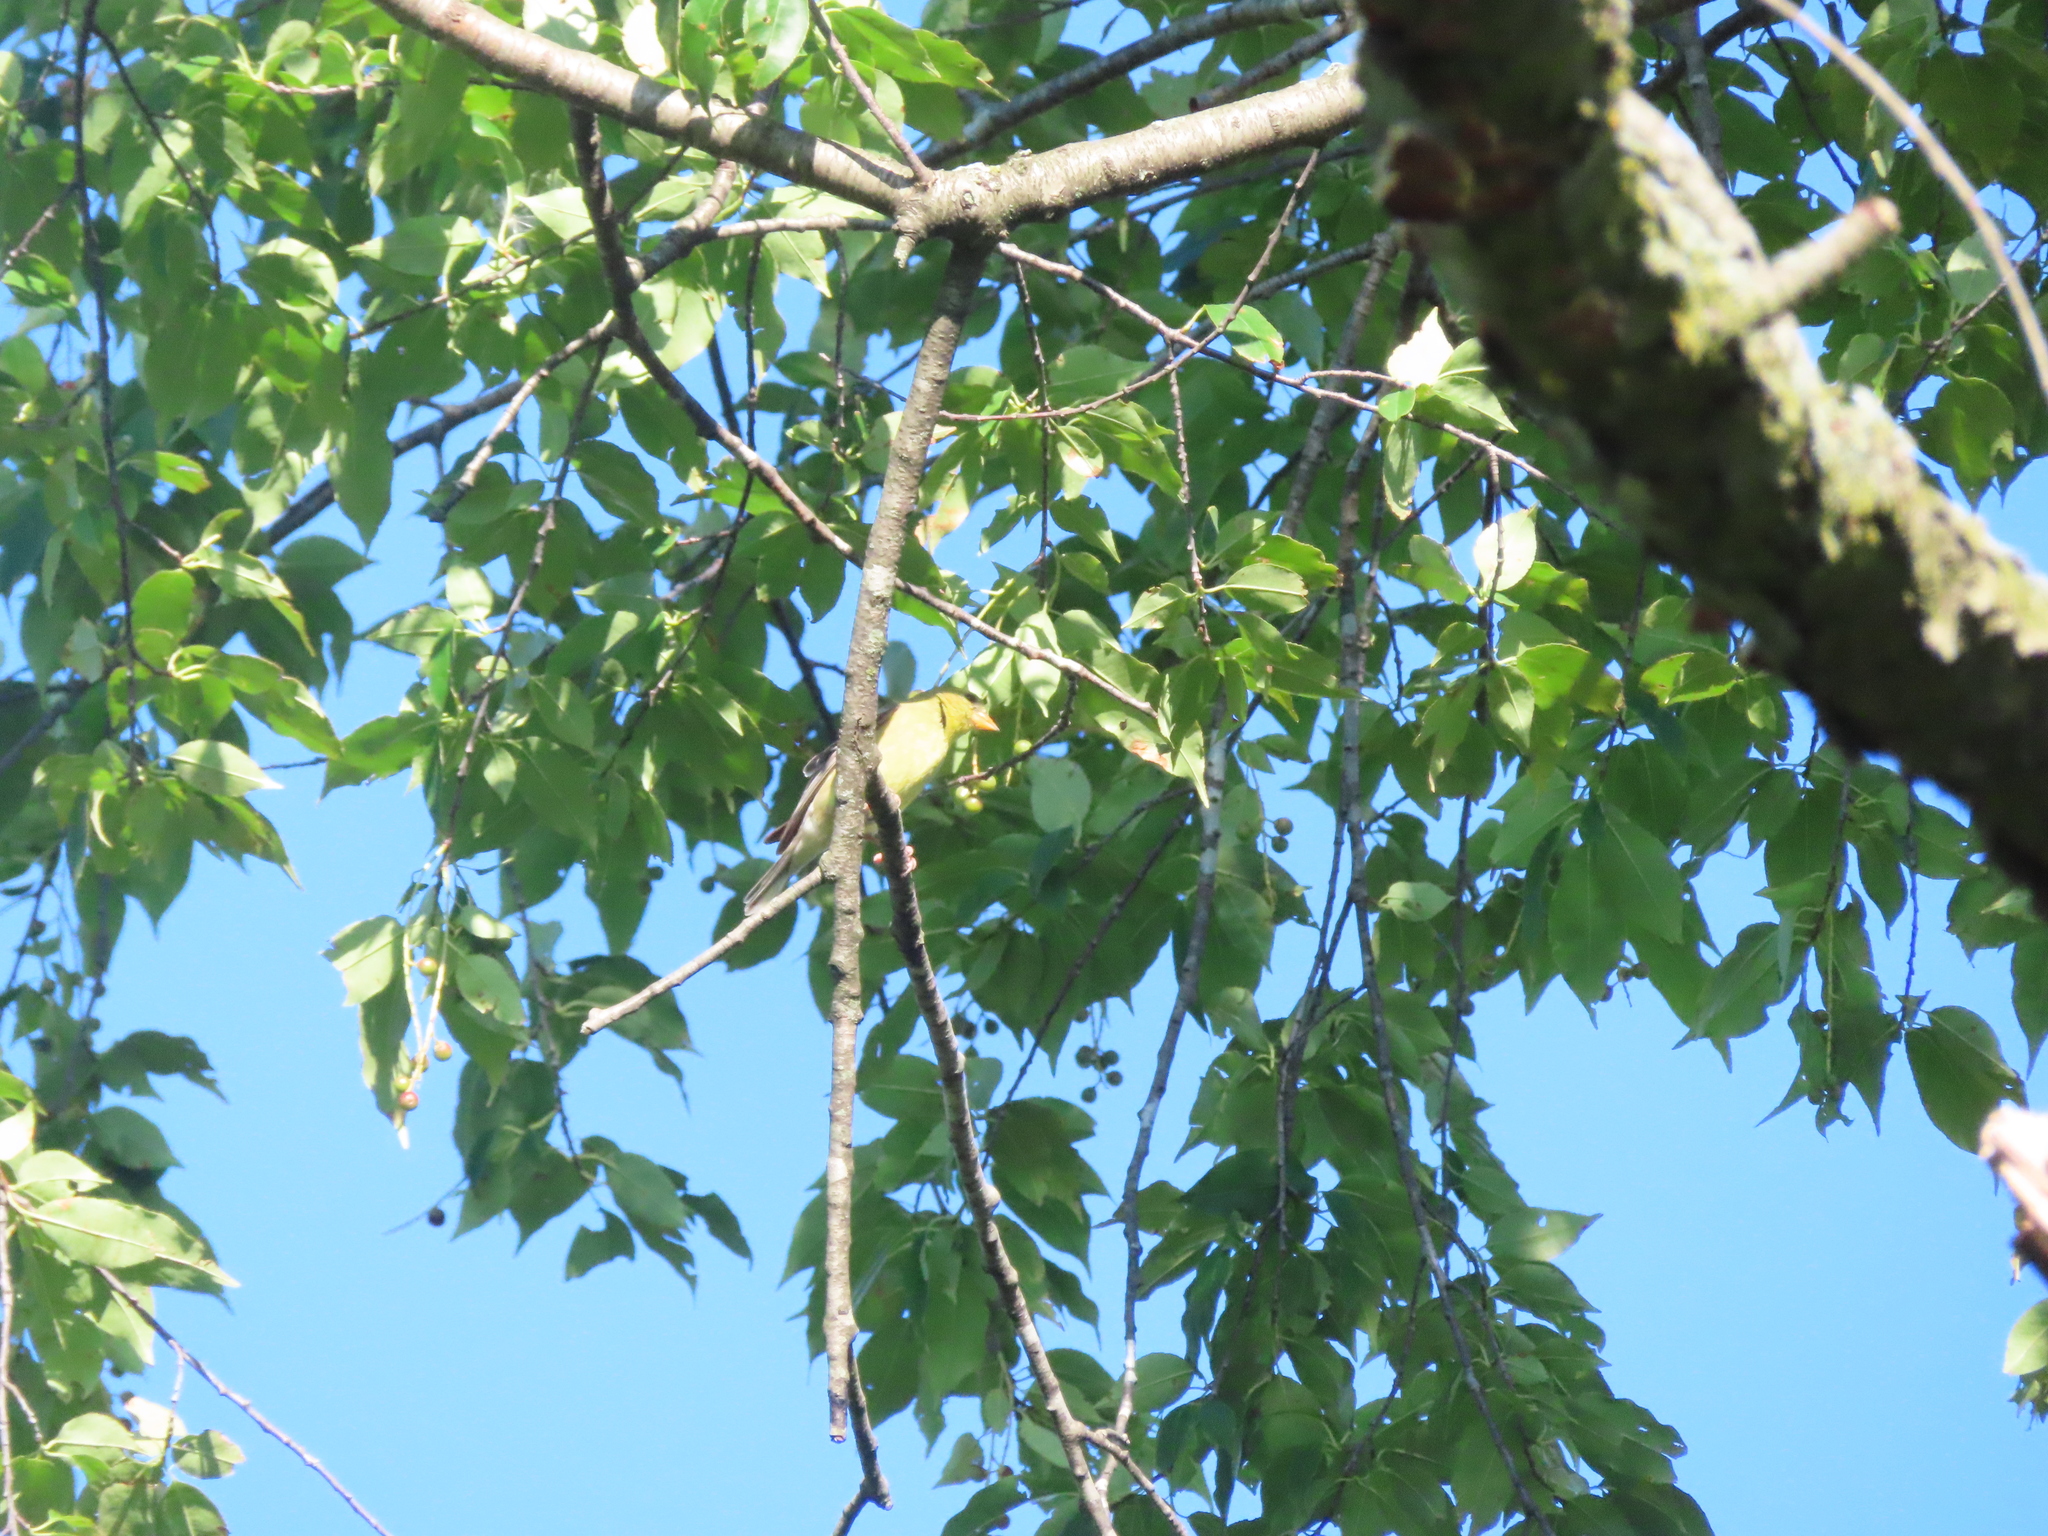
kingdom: Animalia
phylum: Chordata
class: Aves
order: Passeriformes
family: Fringillidae
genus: Spinus
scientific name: Spinus tristis
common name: American goldfinch
